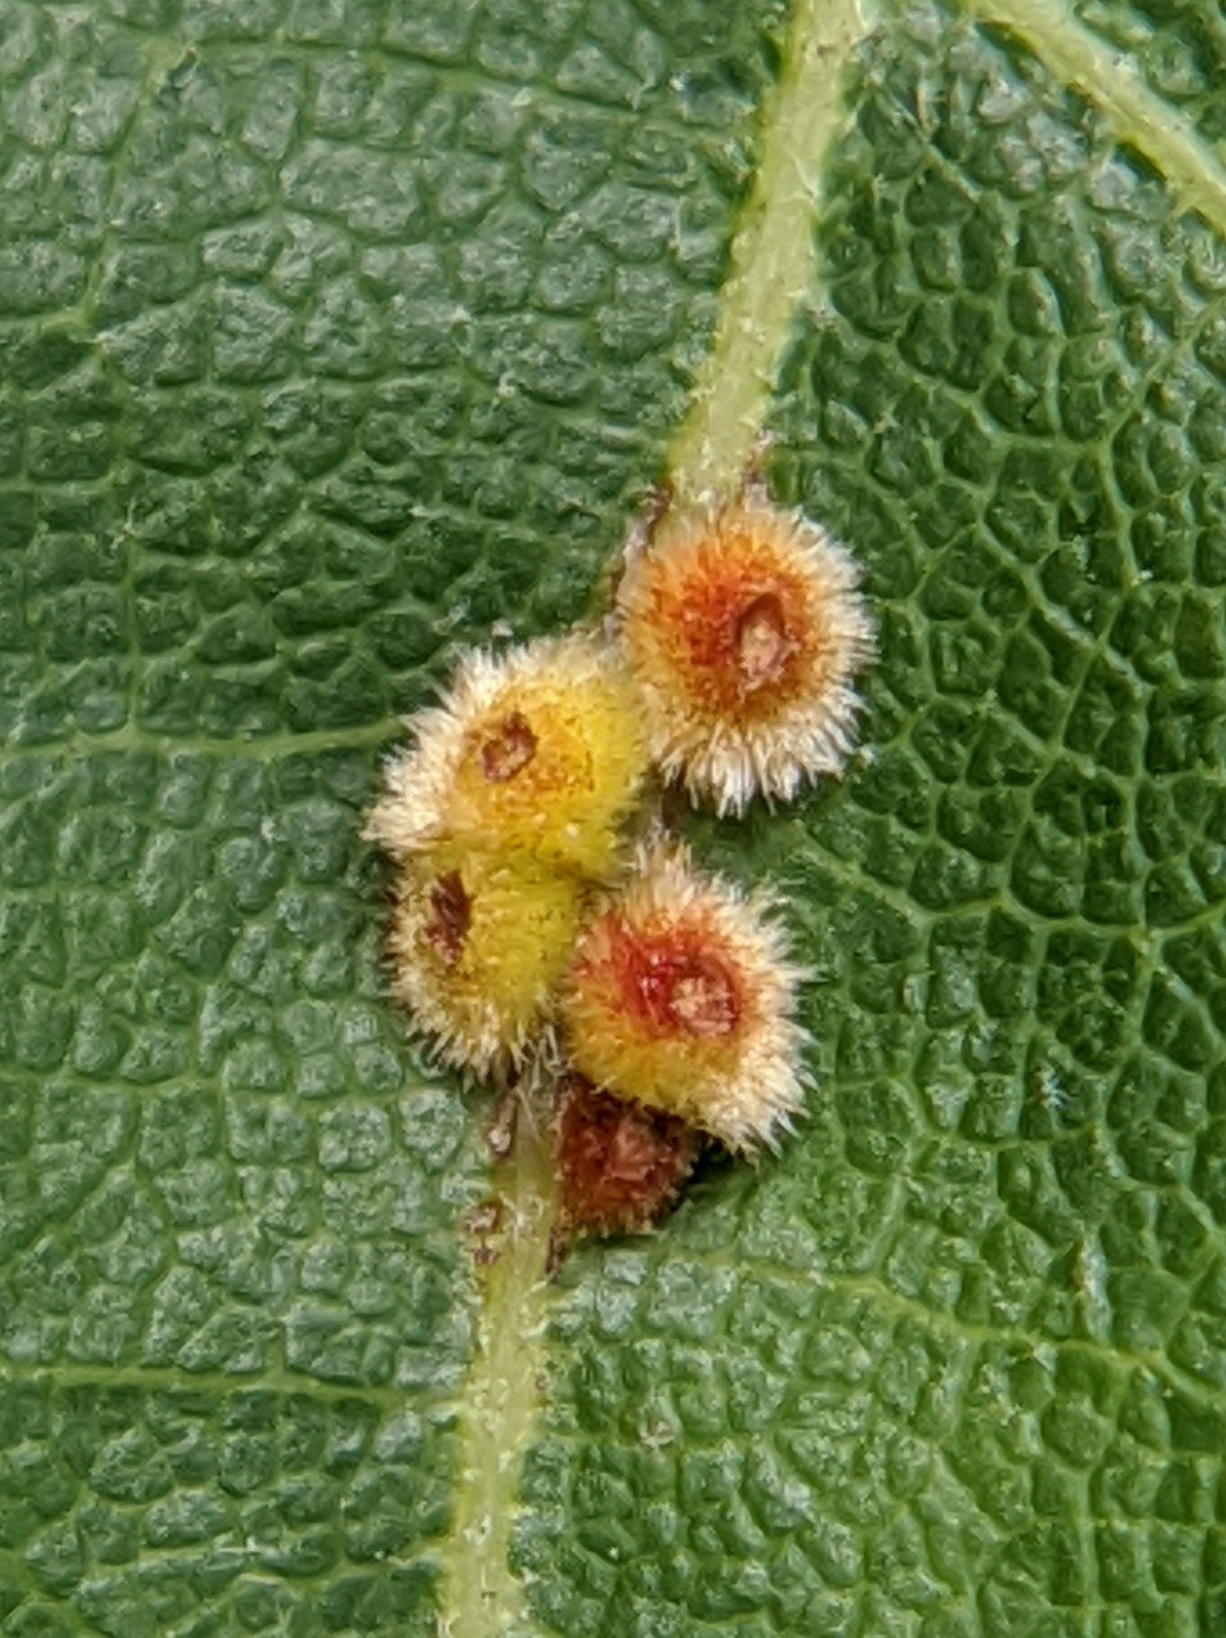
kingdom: Animalia
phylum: Arthropoda
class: Insecta
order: Hymenoptera
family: Cynipidae
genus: Callirhytis
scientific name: Callirhytis
